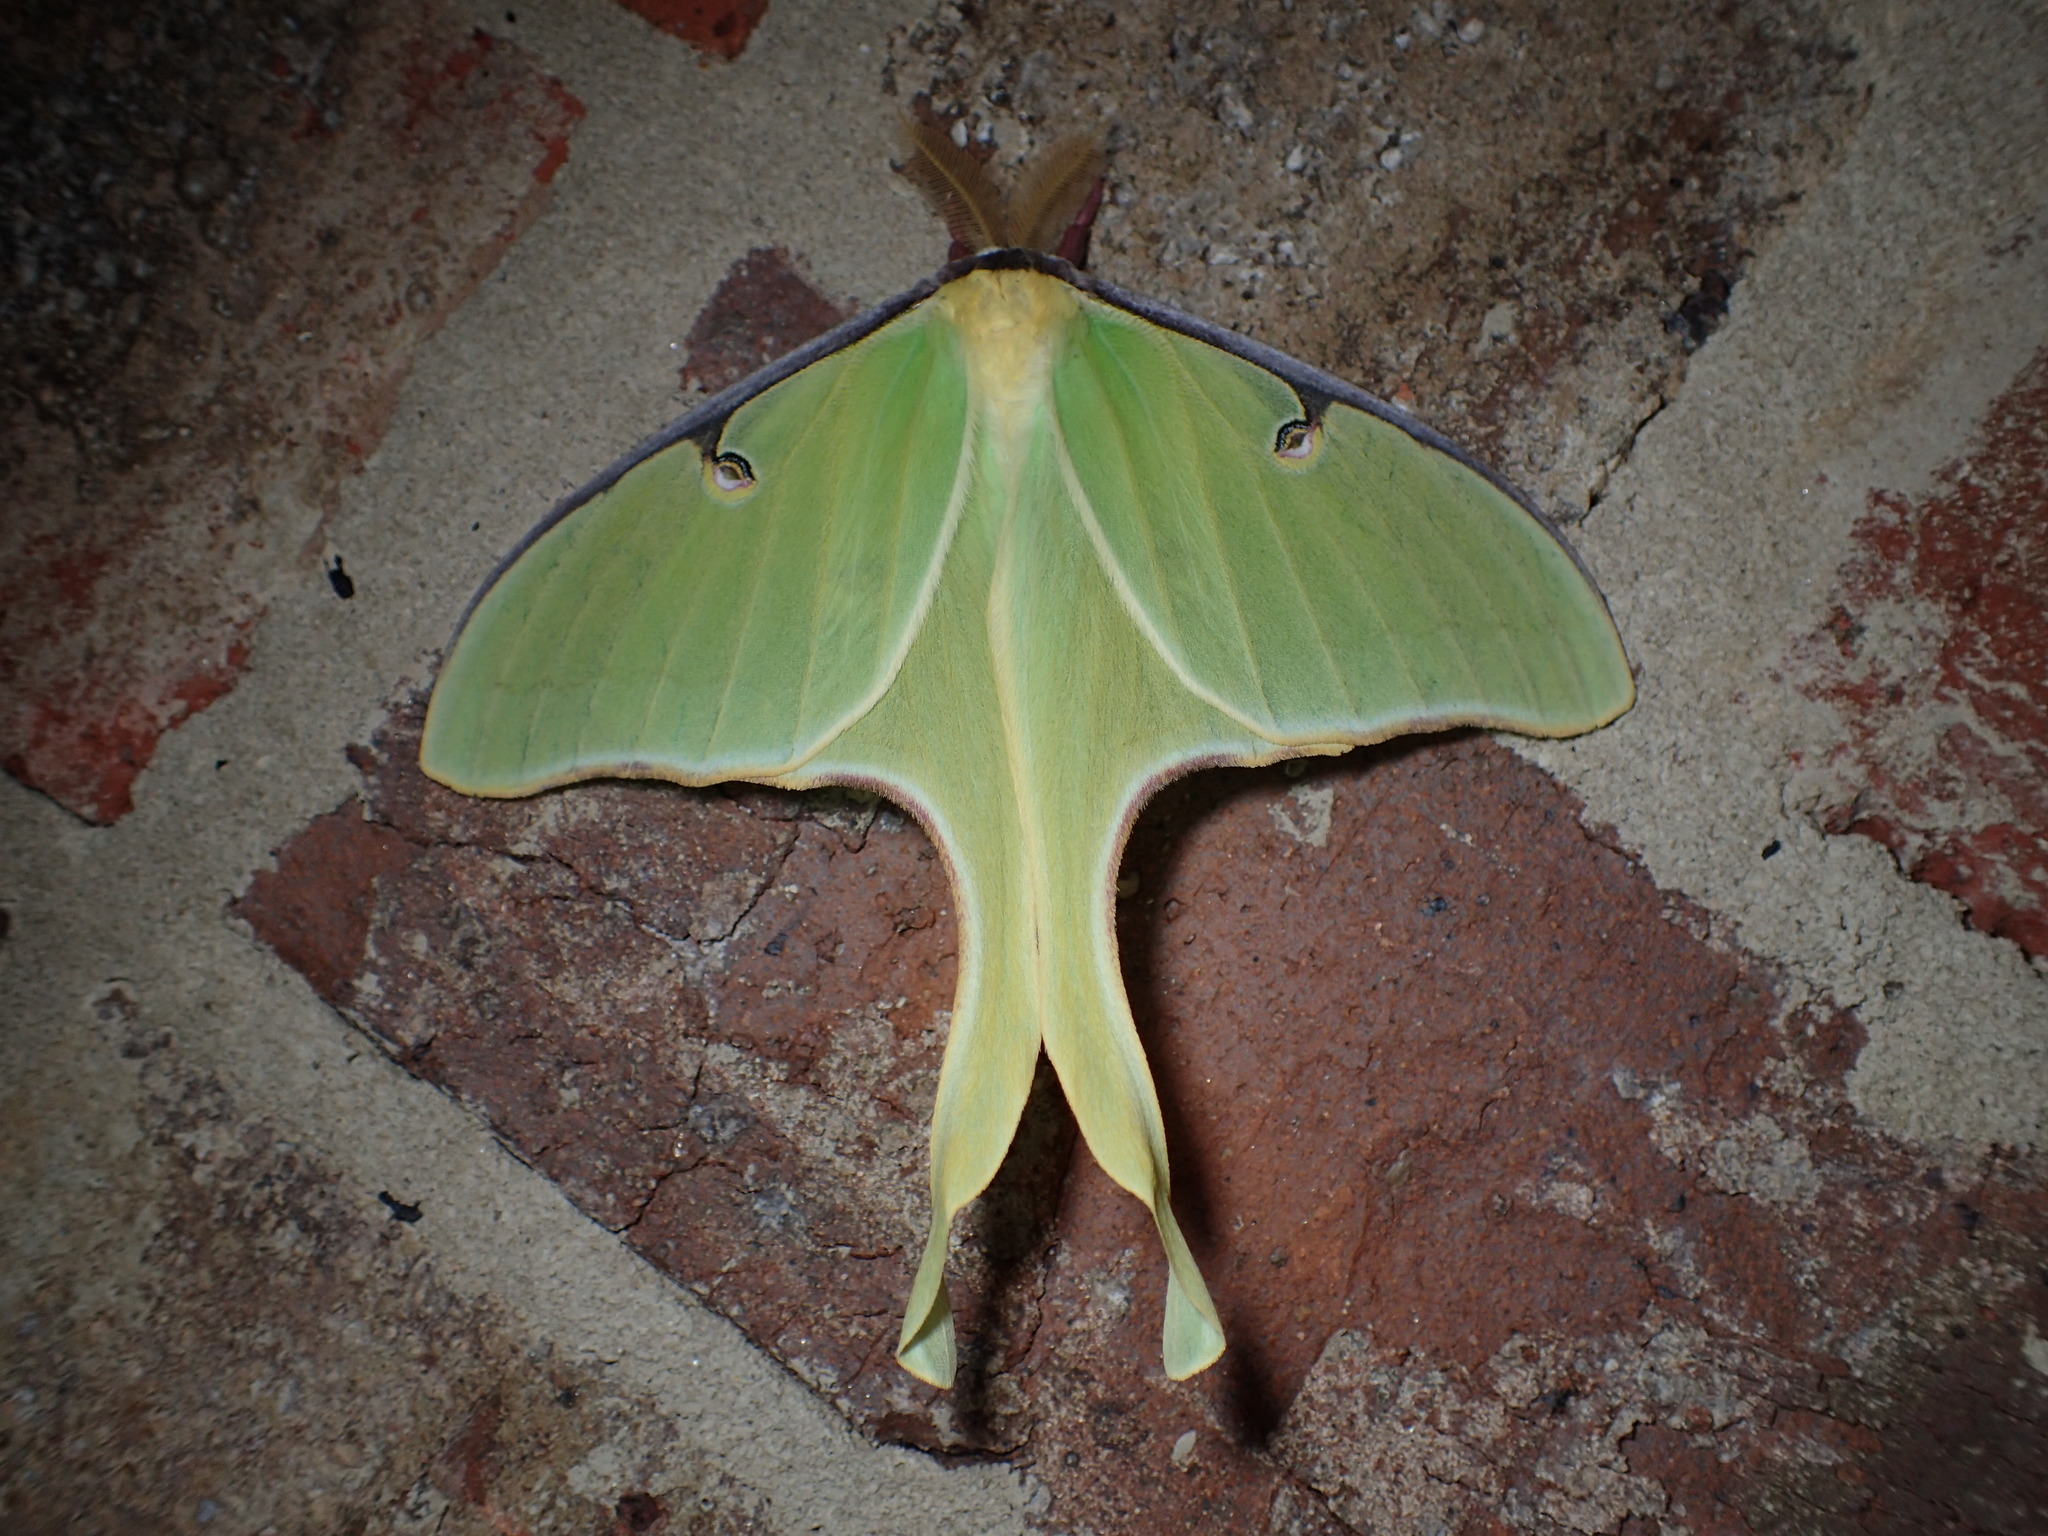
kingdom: Animalia
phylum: Arthropoda
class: Insecta
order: Lepidoptera
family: Saturniidae
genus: Actias
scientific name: Actias luna
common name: Luna moth
